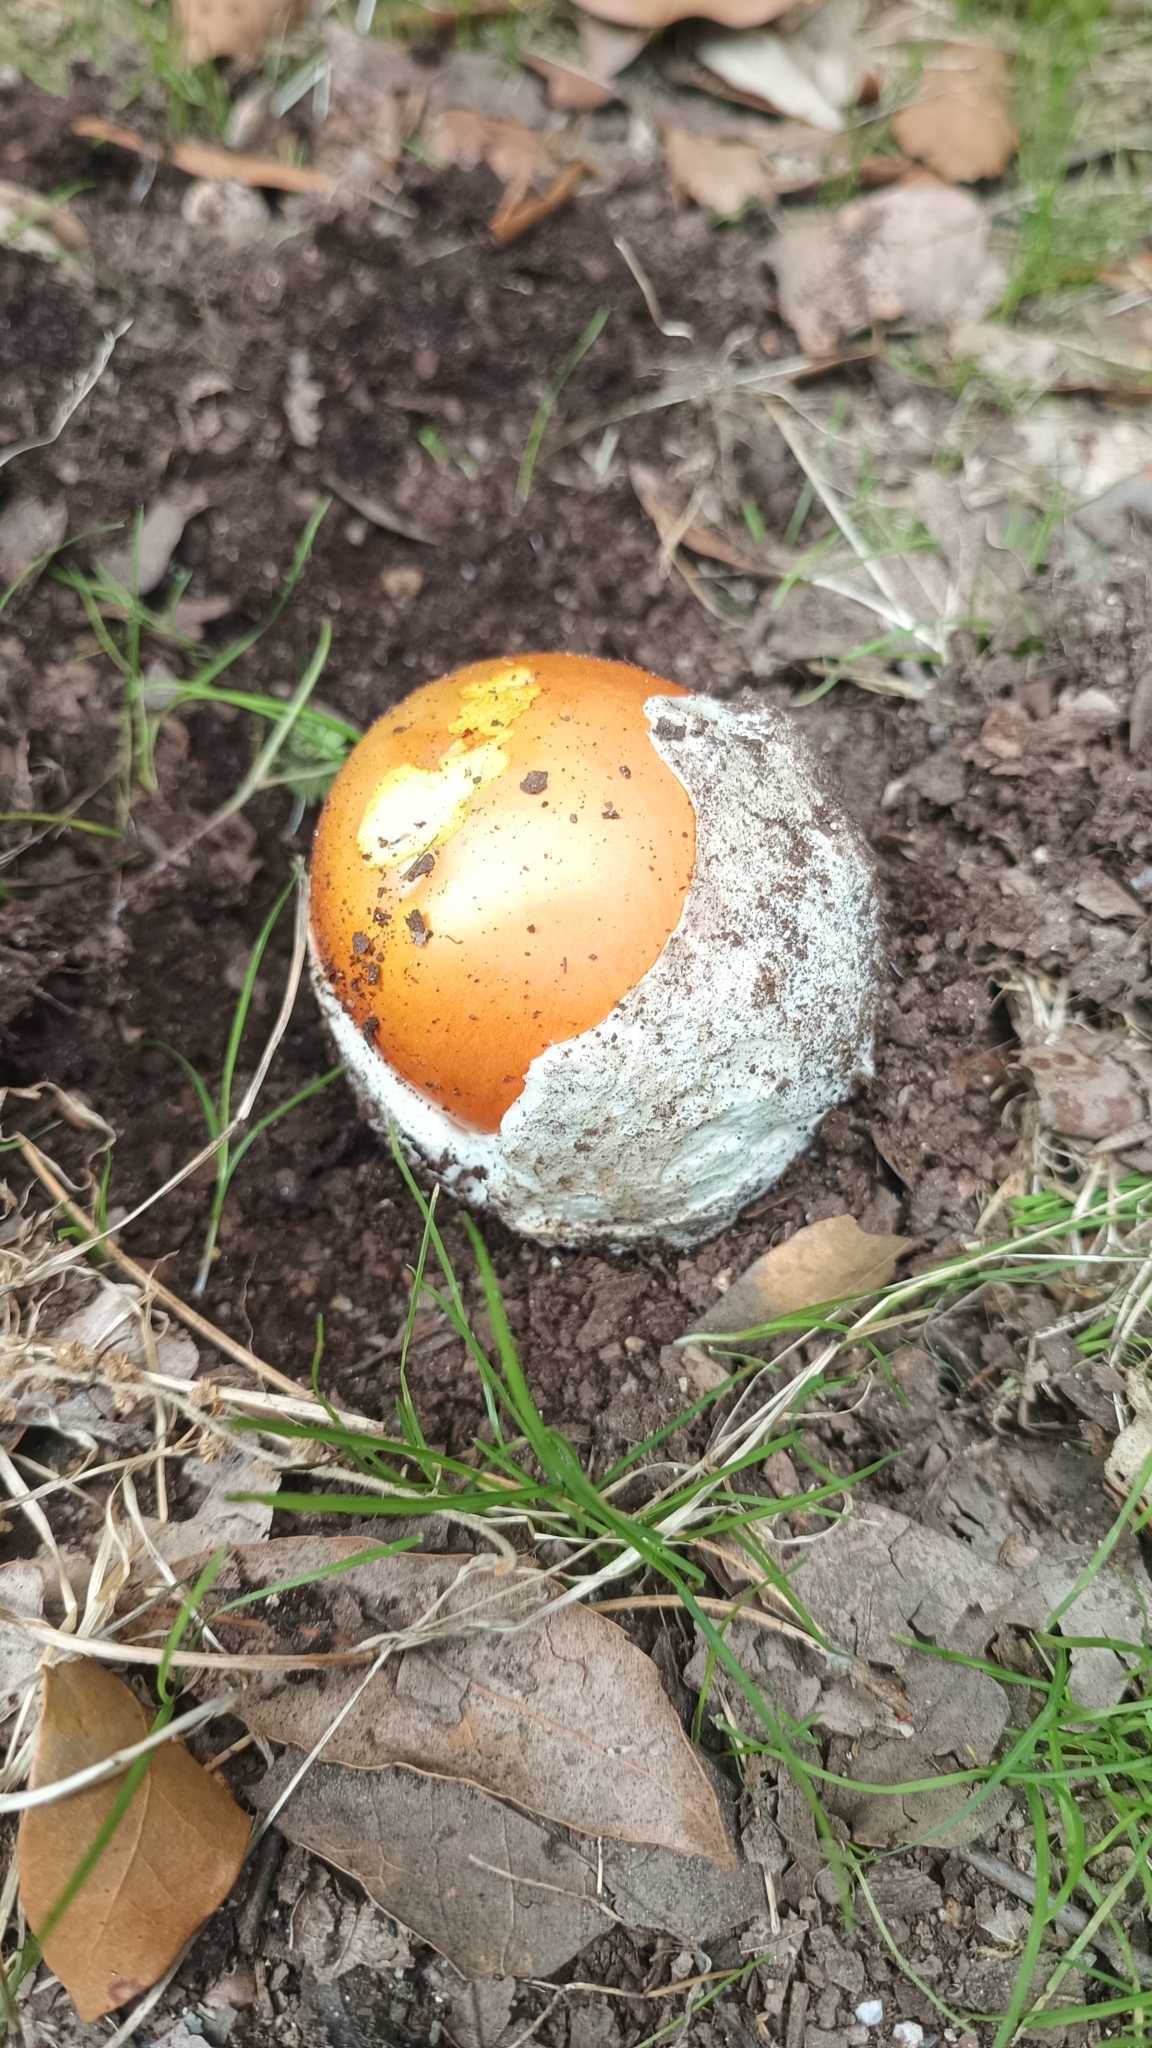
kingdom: Fungi
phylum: Basidiomycota
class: Agaricomycetes
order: Agaricales
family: Amanitaceae
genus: Amanita
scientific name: Amanita caesarea
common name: Caesar's amanita
